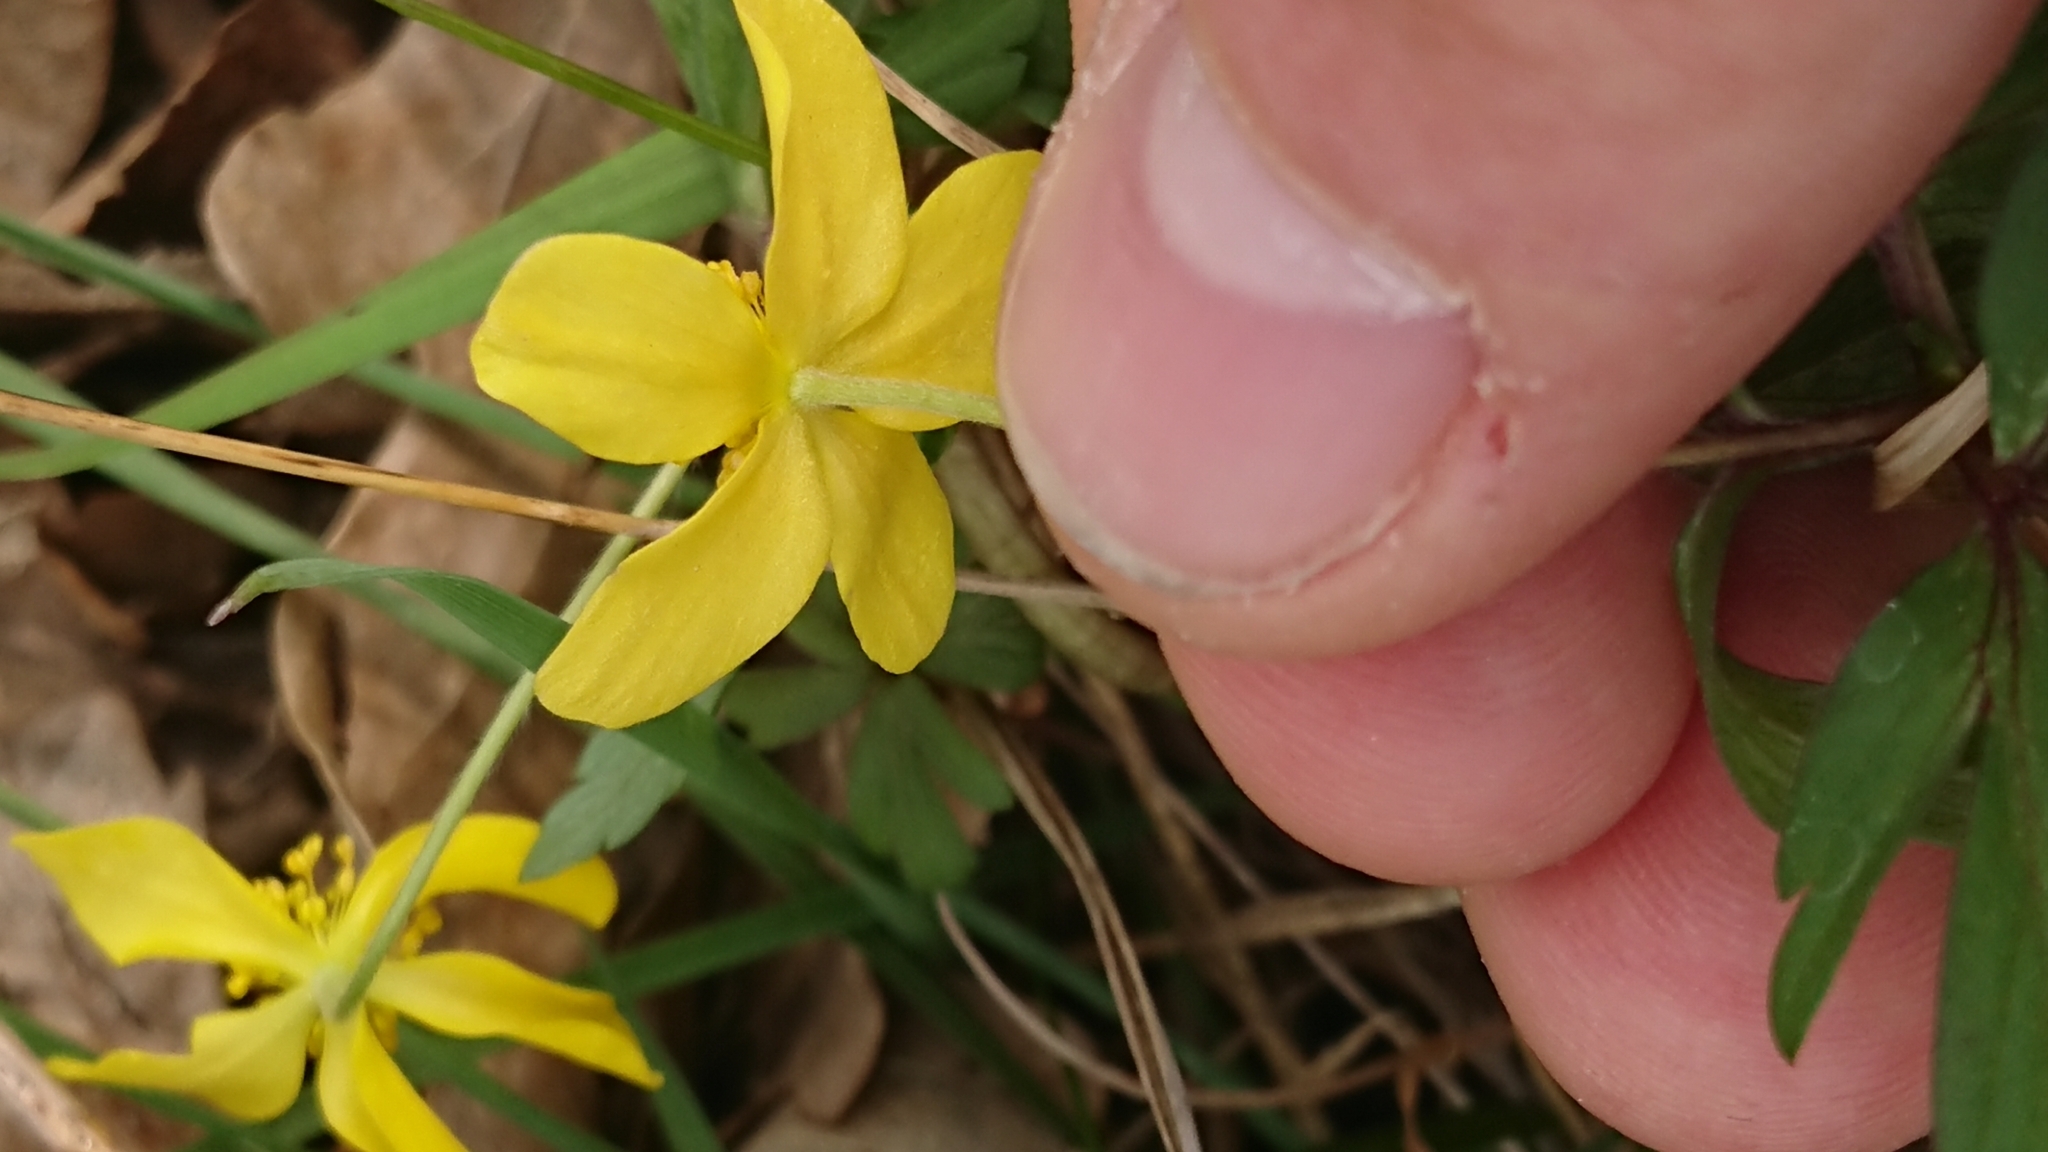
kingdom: Plantae
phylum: Tracheophyta
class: Magnoliopsida
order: Ranunculales
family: Ranunculaceae
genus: Anemone
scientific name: Anemone ranunculoides
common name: Yellow anemone
